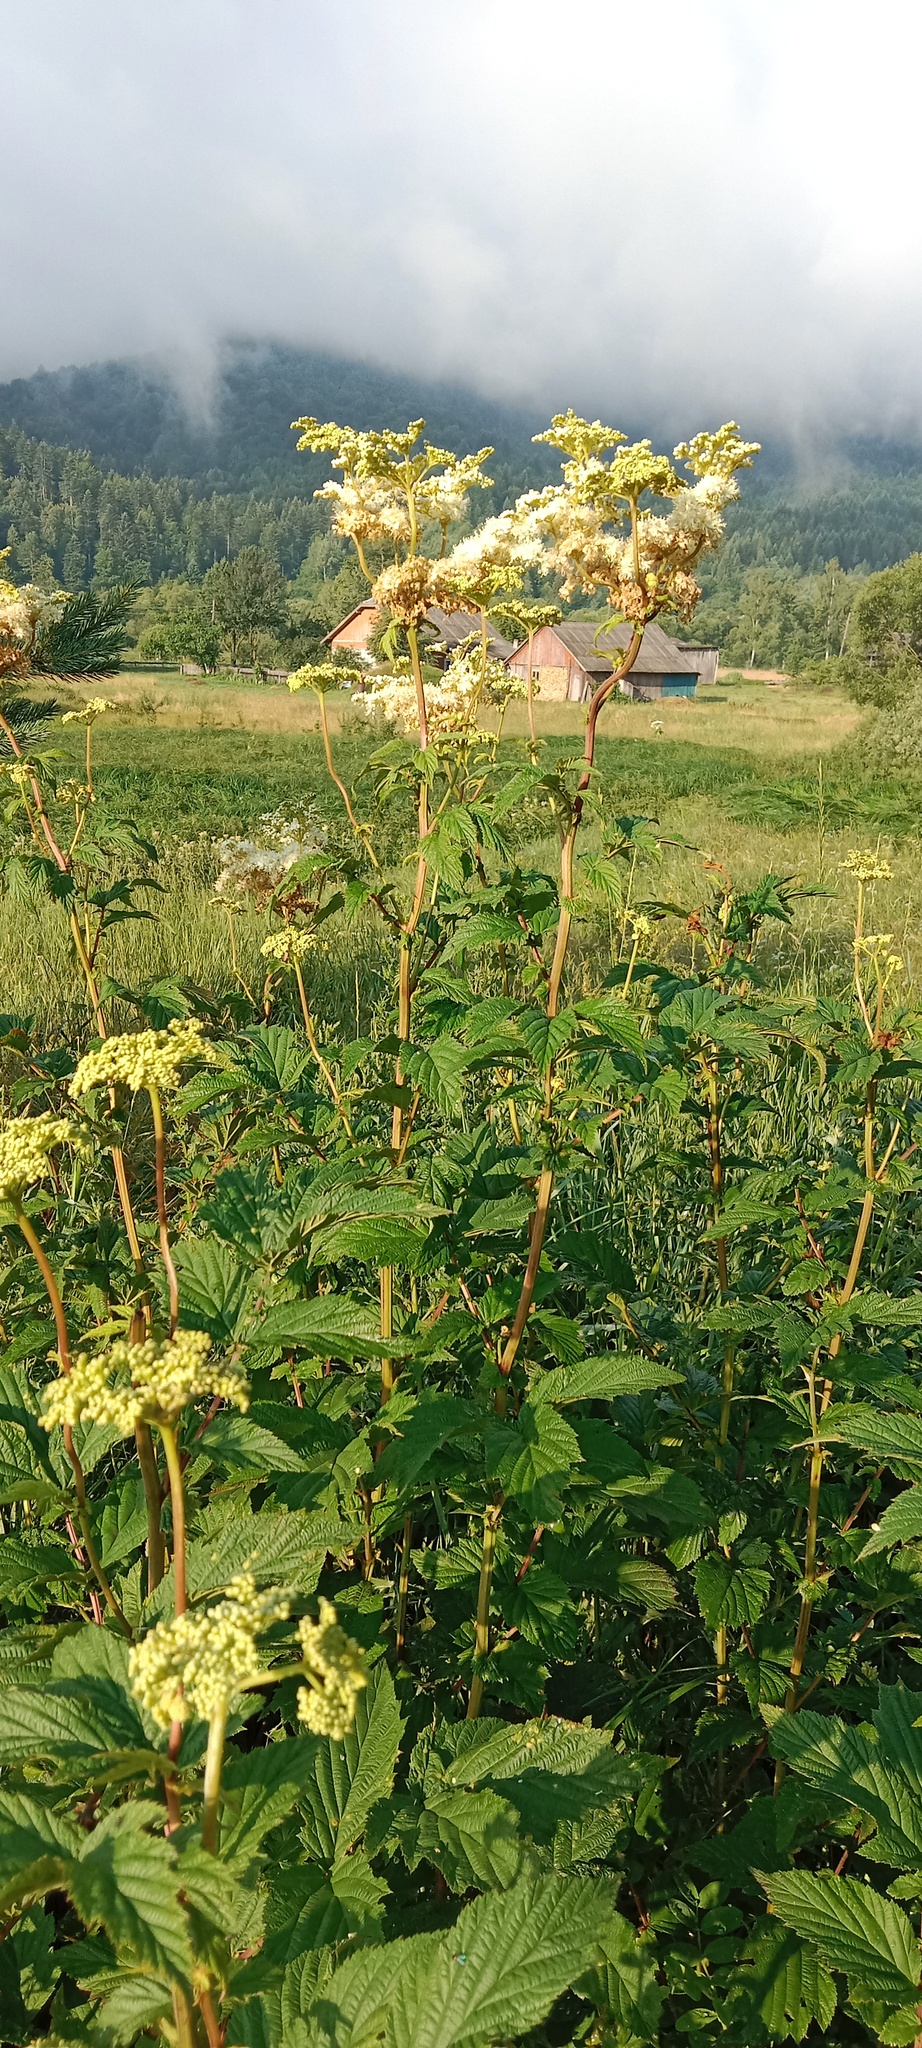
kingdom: Plantae
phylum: Tracheophyta
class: Magnoliopsida
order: Rosales
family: Rosaceae
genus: Filipendula
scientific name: Filipendula ulmaria
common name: Meadowsweet
